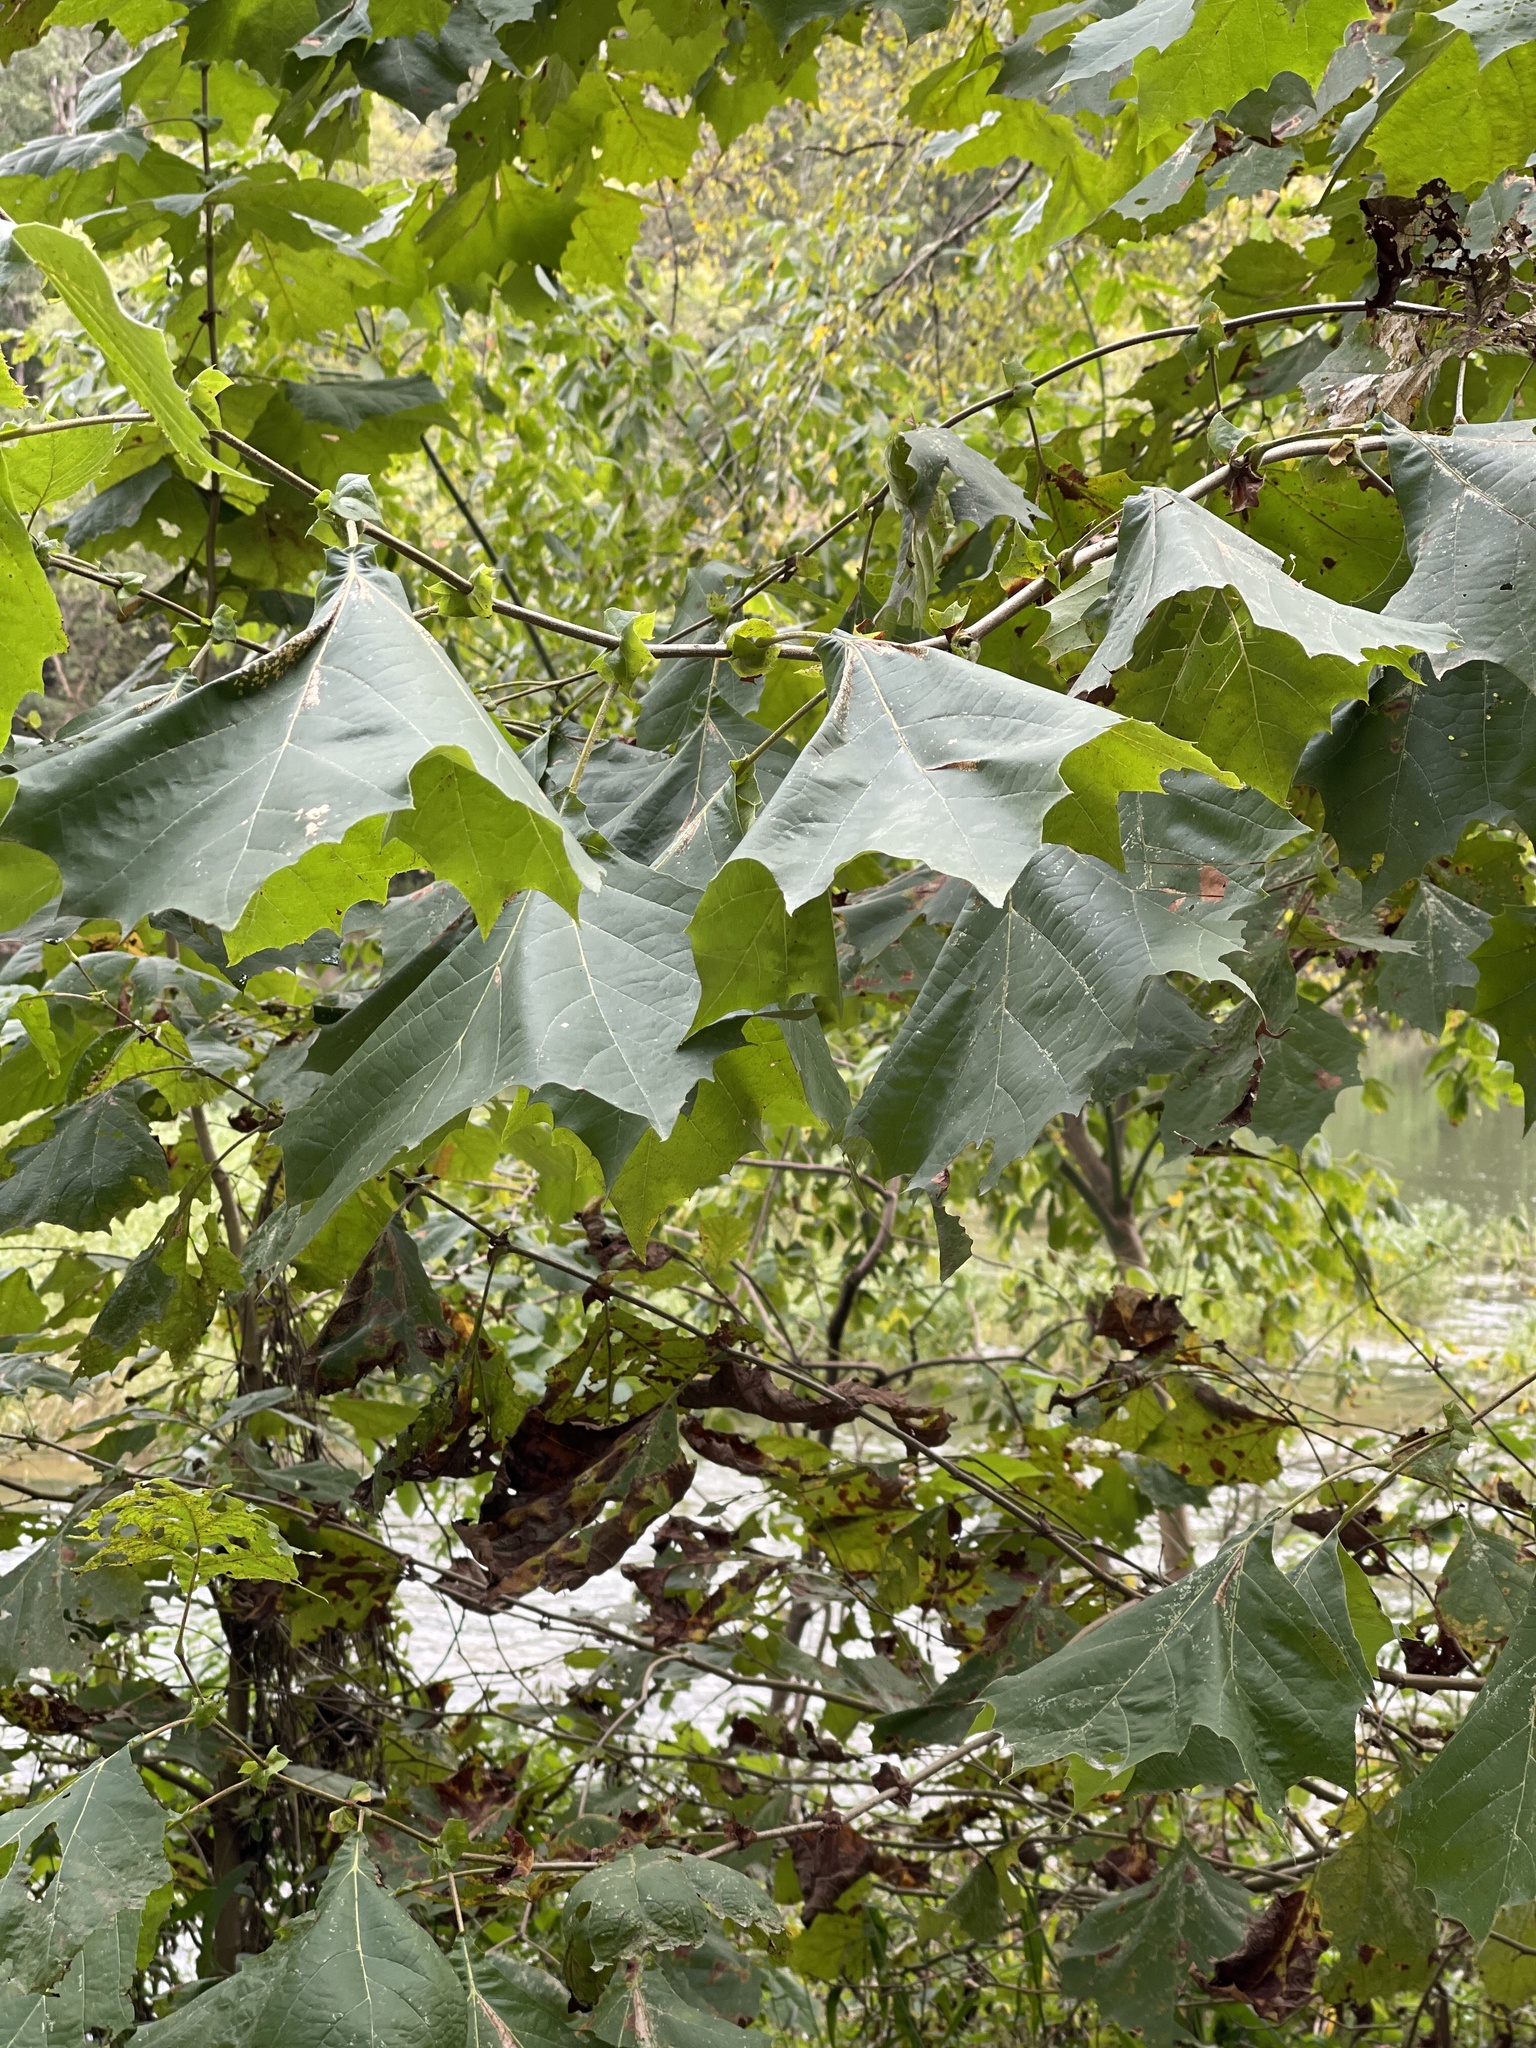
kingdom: Plantae
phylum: Tracheophyta
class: Magnoliopsida
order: Proteales
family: Platanaceae
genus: Platanus
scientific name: Platanus occidentalis
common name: American sycamore
